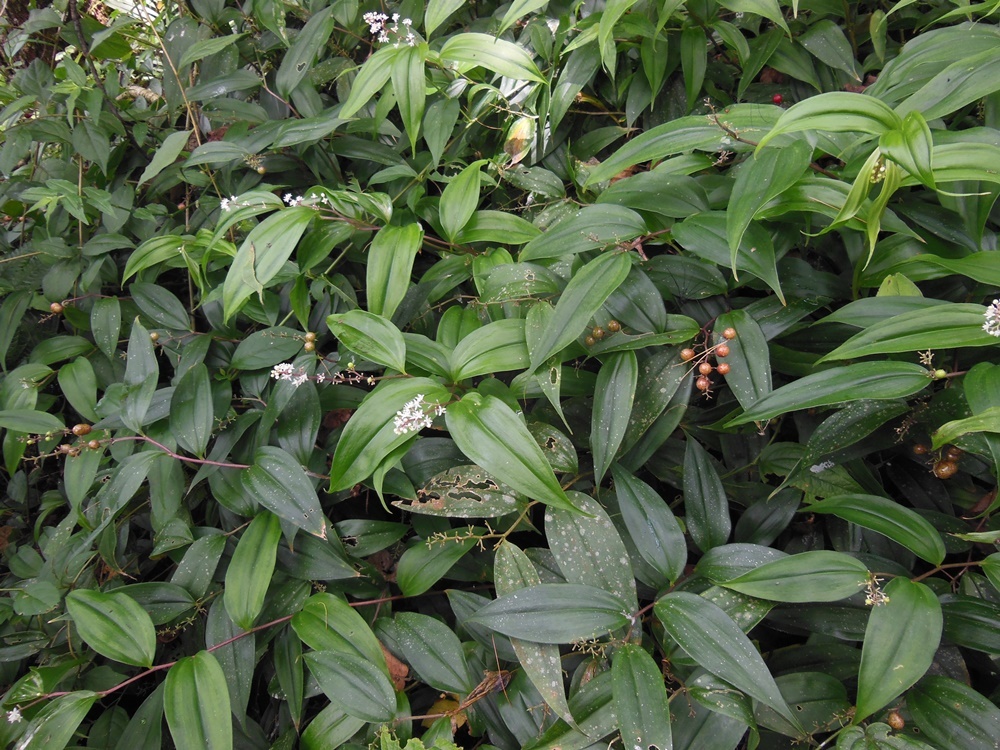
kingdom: Plantae
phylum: Tracheophyta
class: Liliopsida
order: Asparagales
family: Asparagaceae
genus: Maianthemum
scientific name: Maianthemum paniculatum
